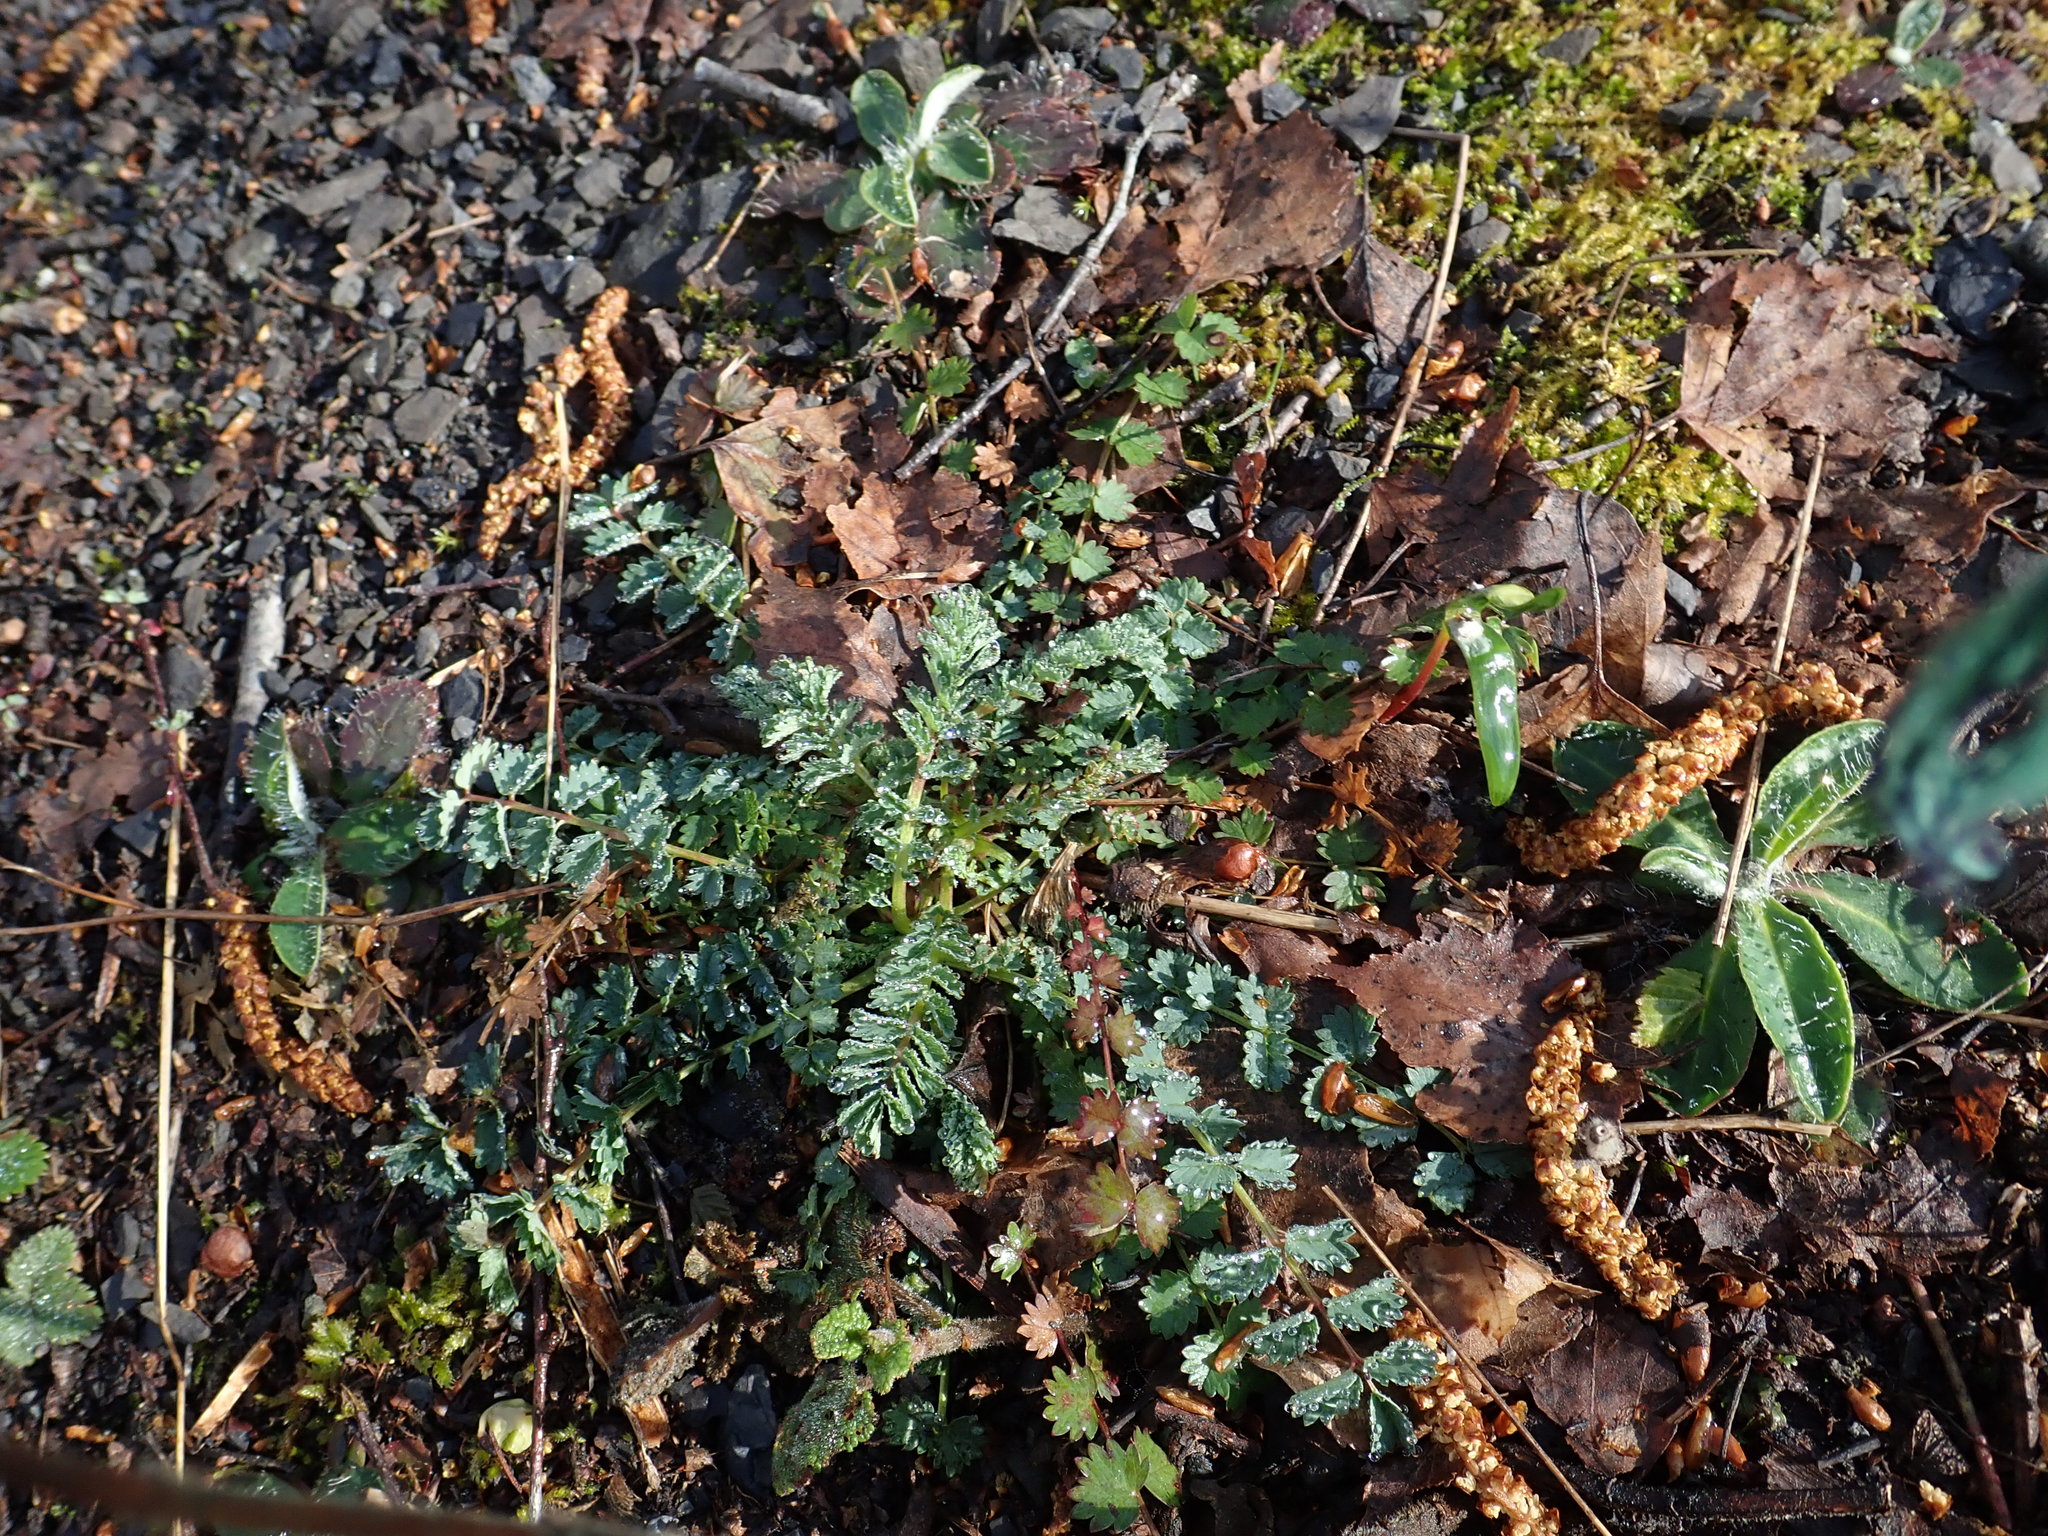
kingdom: Plantae
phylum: Tracheophyta
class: Magnoliopsida
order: Rosales
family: Rosaceae
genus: Poterium
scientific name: Poterium sanguisorba
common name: Salad burnet
